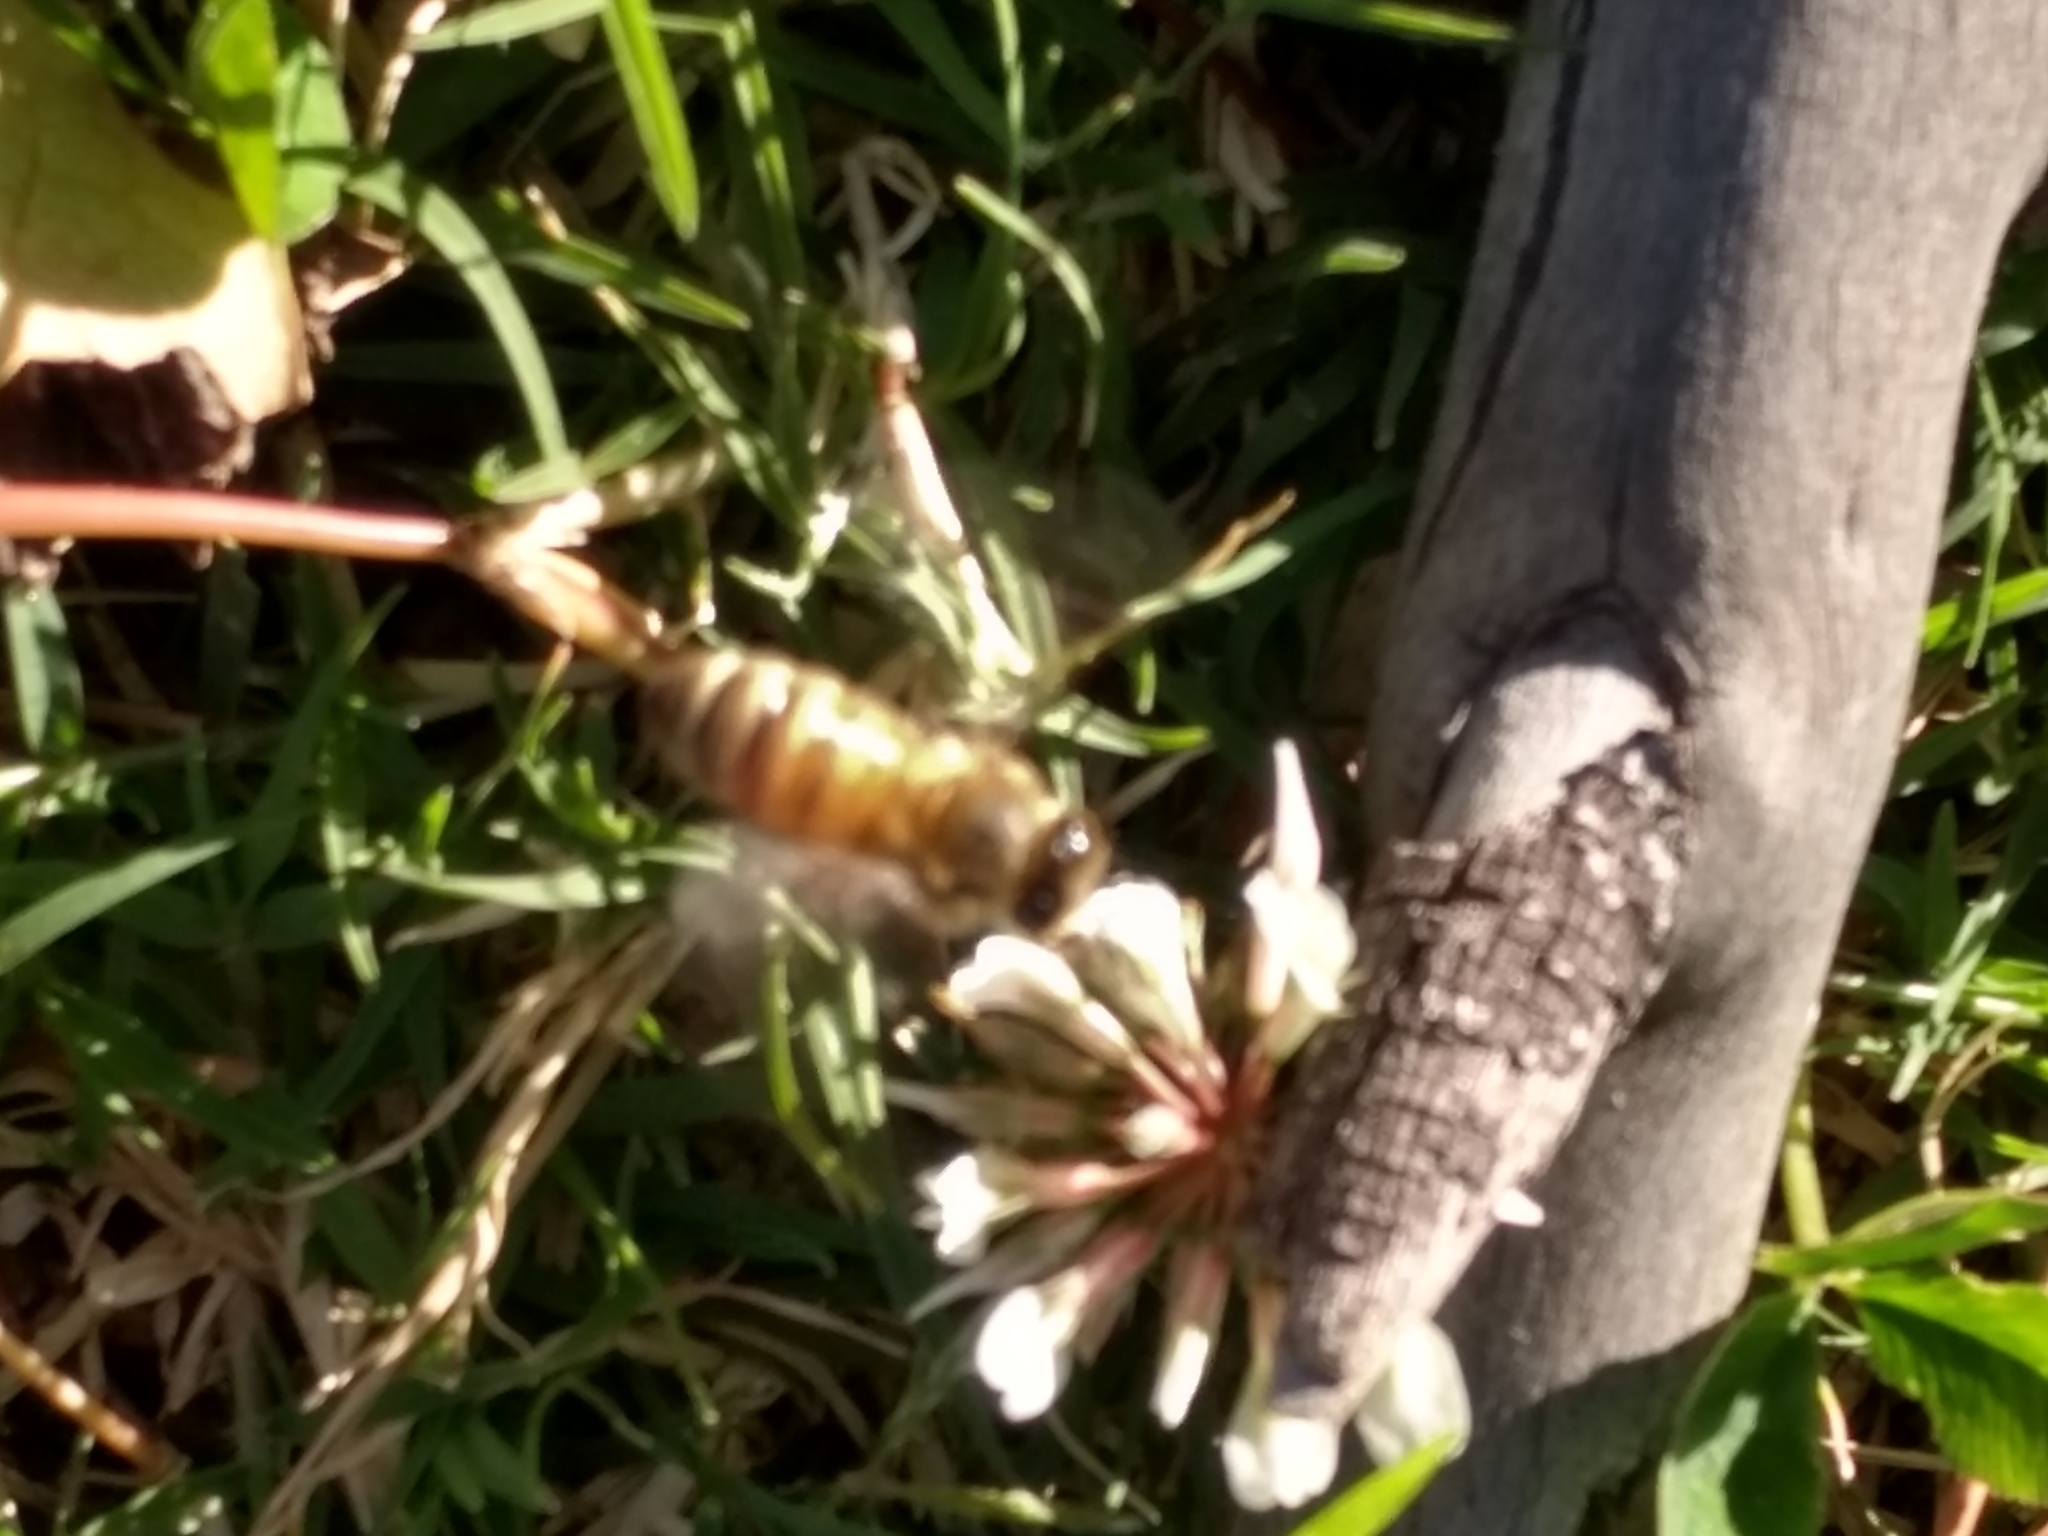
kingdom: Animalia
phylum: Arthropoda
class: Insecta
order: Hymenoptera
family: Apidae
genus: Apis
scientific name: Apis mellifera
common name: Honey bee
